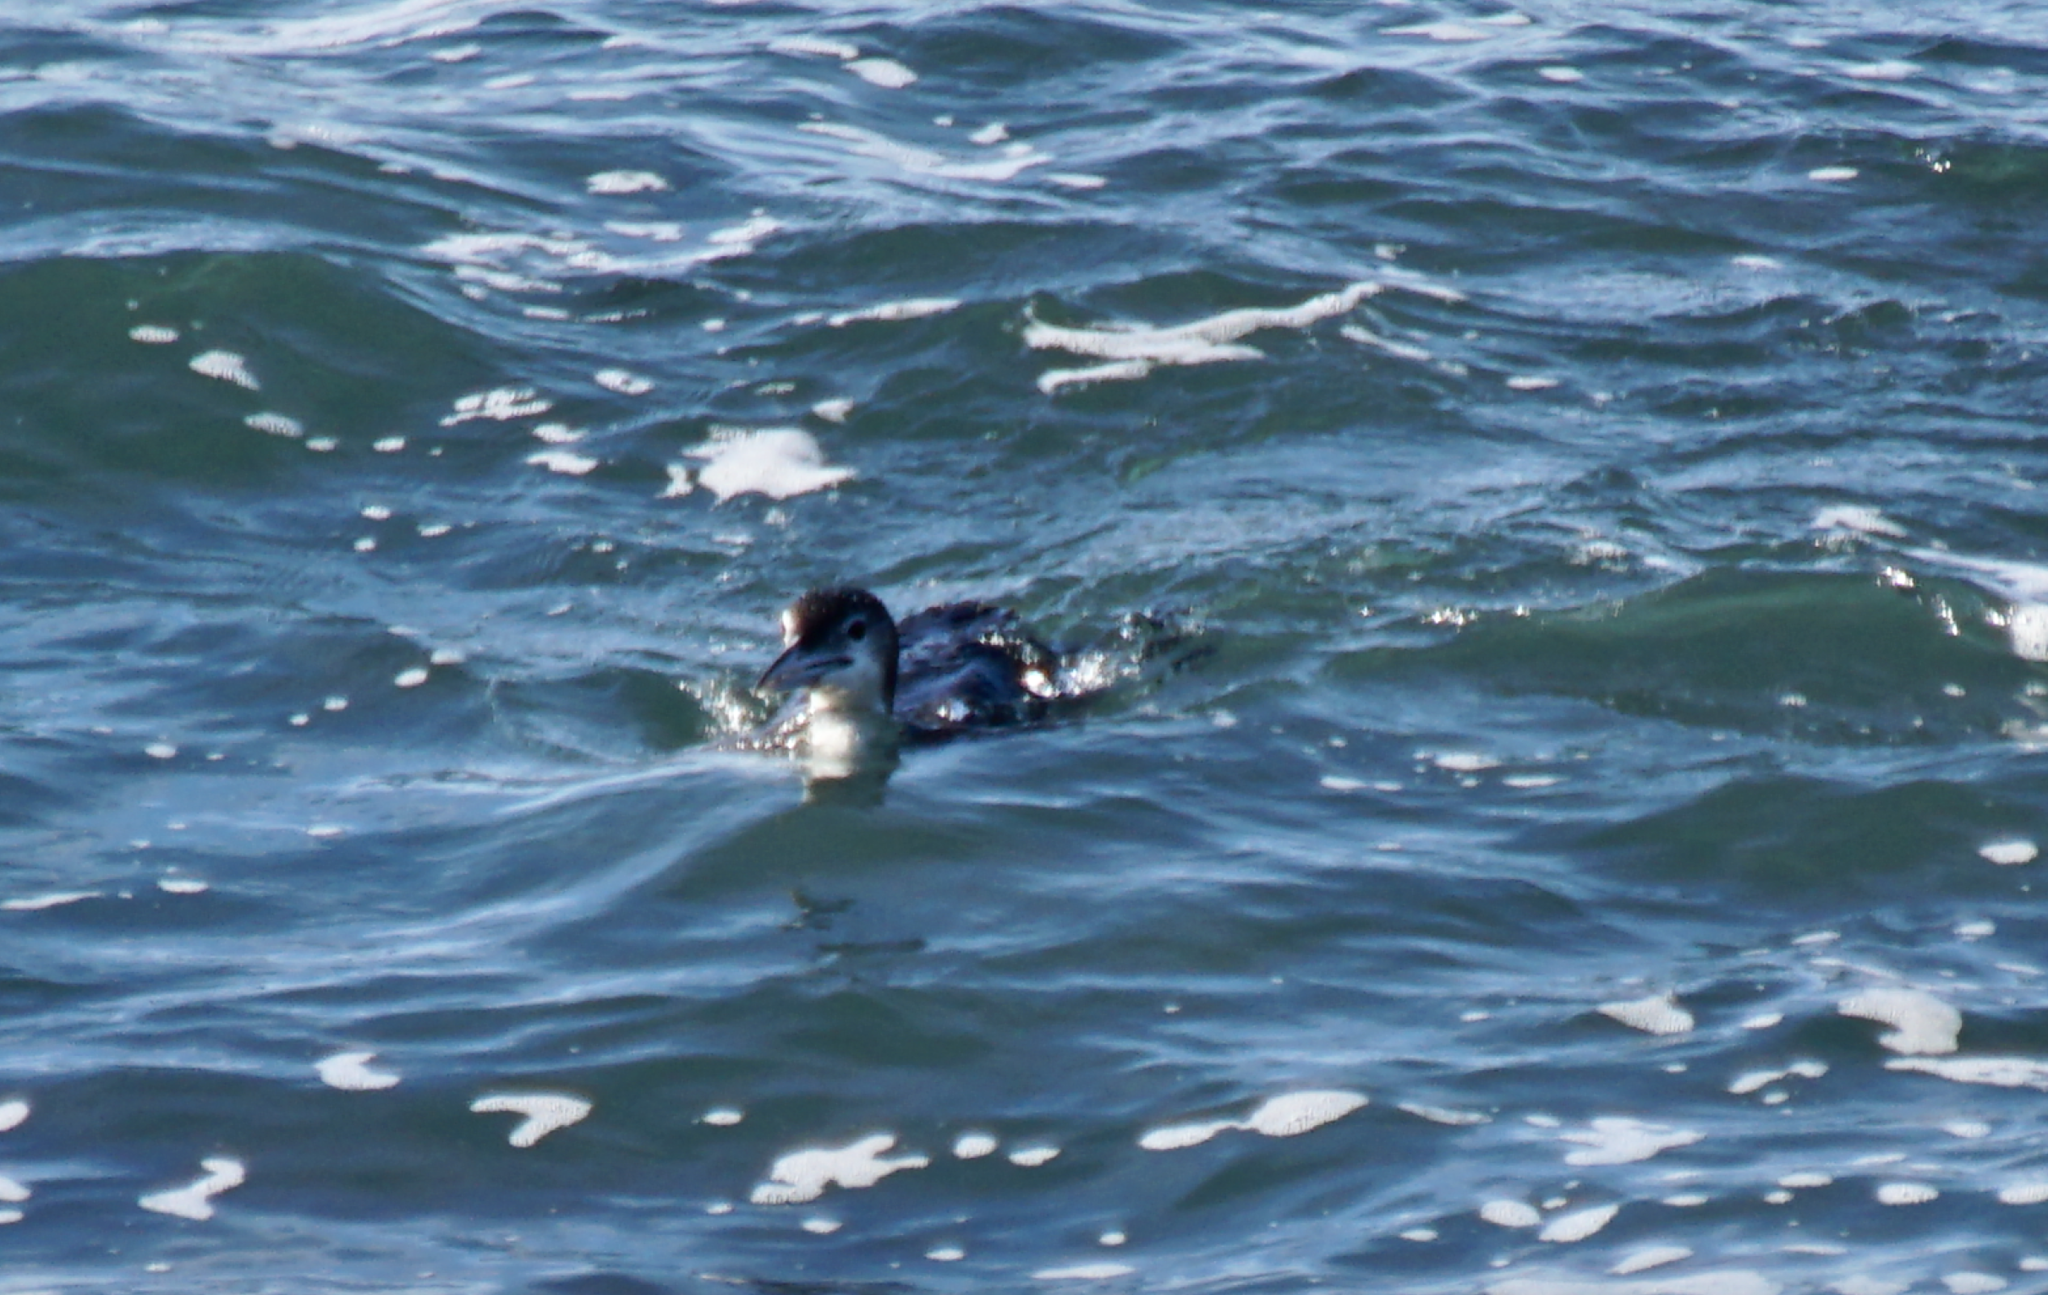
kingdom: Animalia
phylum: Chordata
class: Aves
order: Gaviiformes
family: Gaviidae
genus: Gavia
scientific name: Gavia immer
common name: Common loon
